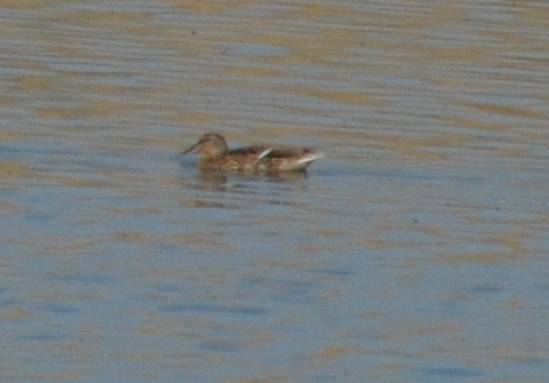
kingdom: Animalia
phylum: Chordata
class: Aves
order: Anseriformes
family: Anatidae
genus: Anas
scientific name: Anas platyrhynchos
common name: Mallard
